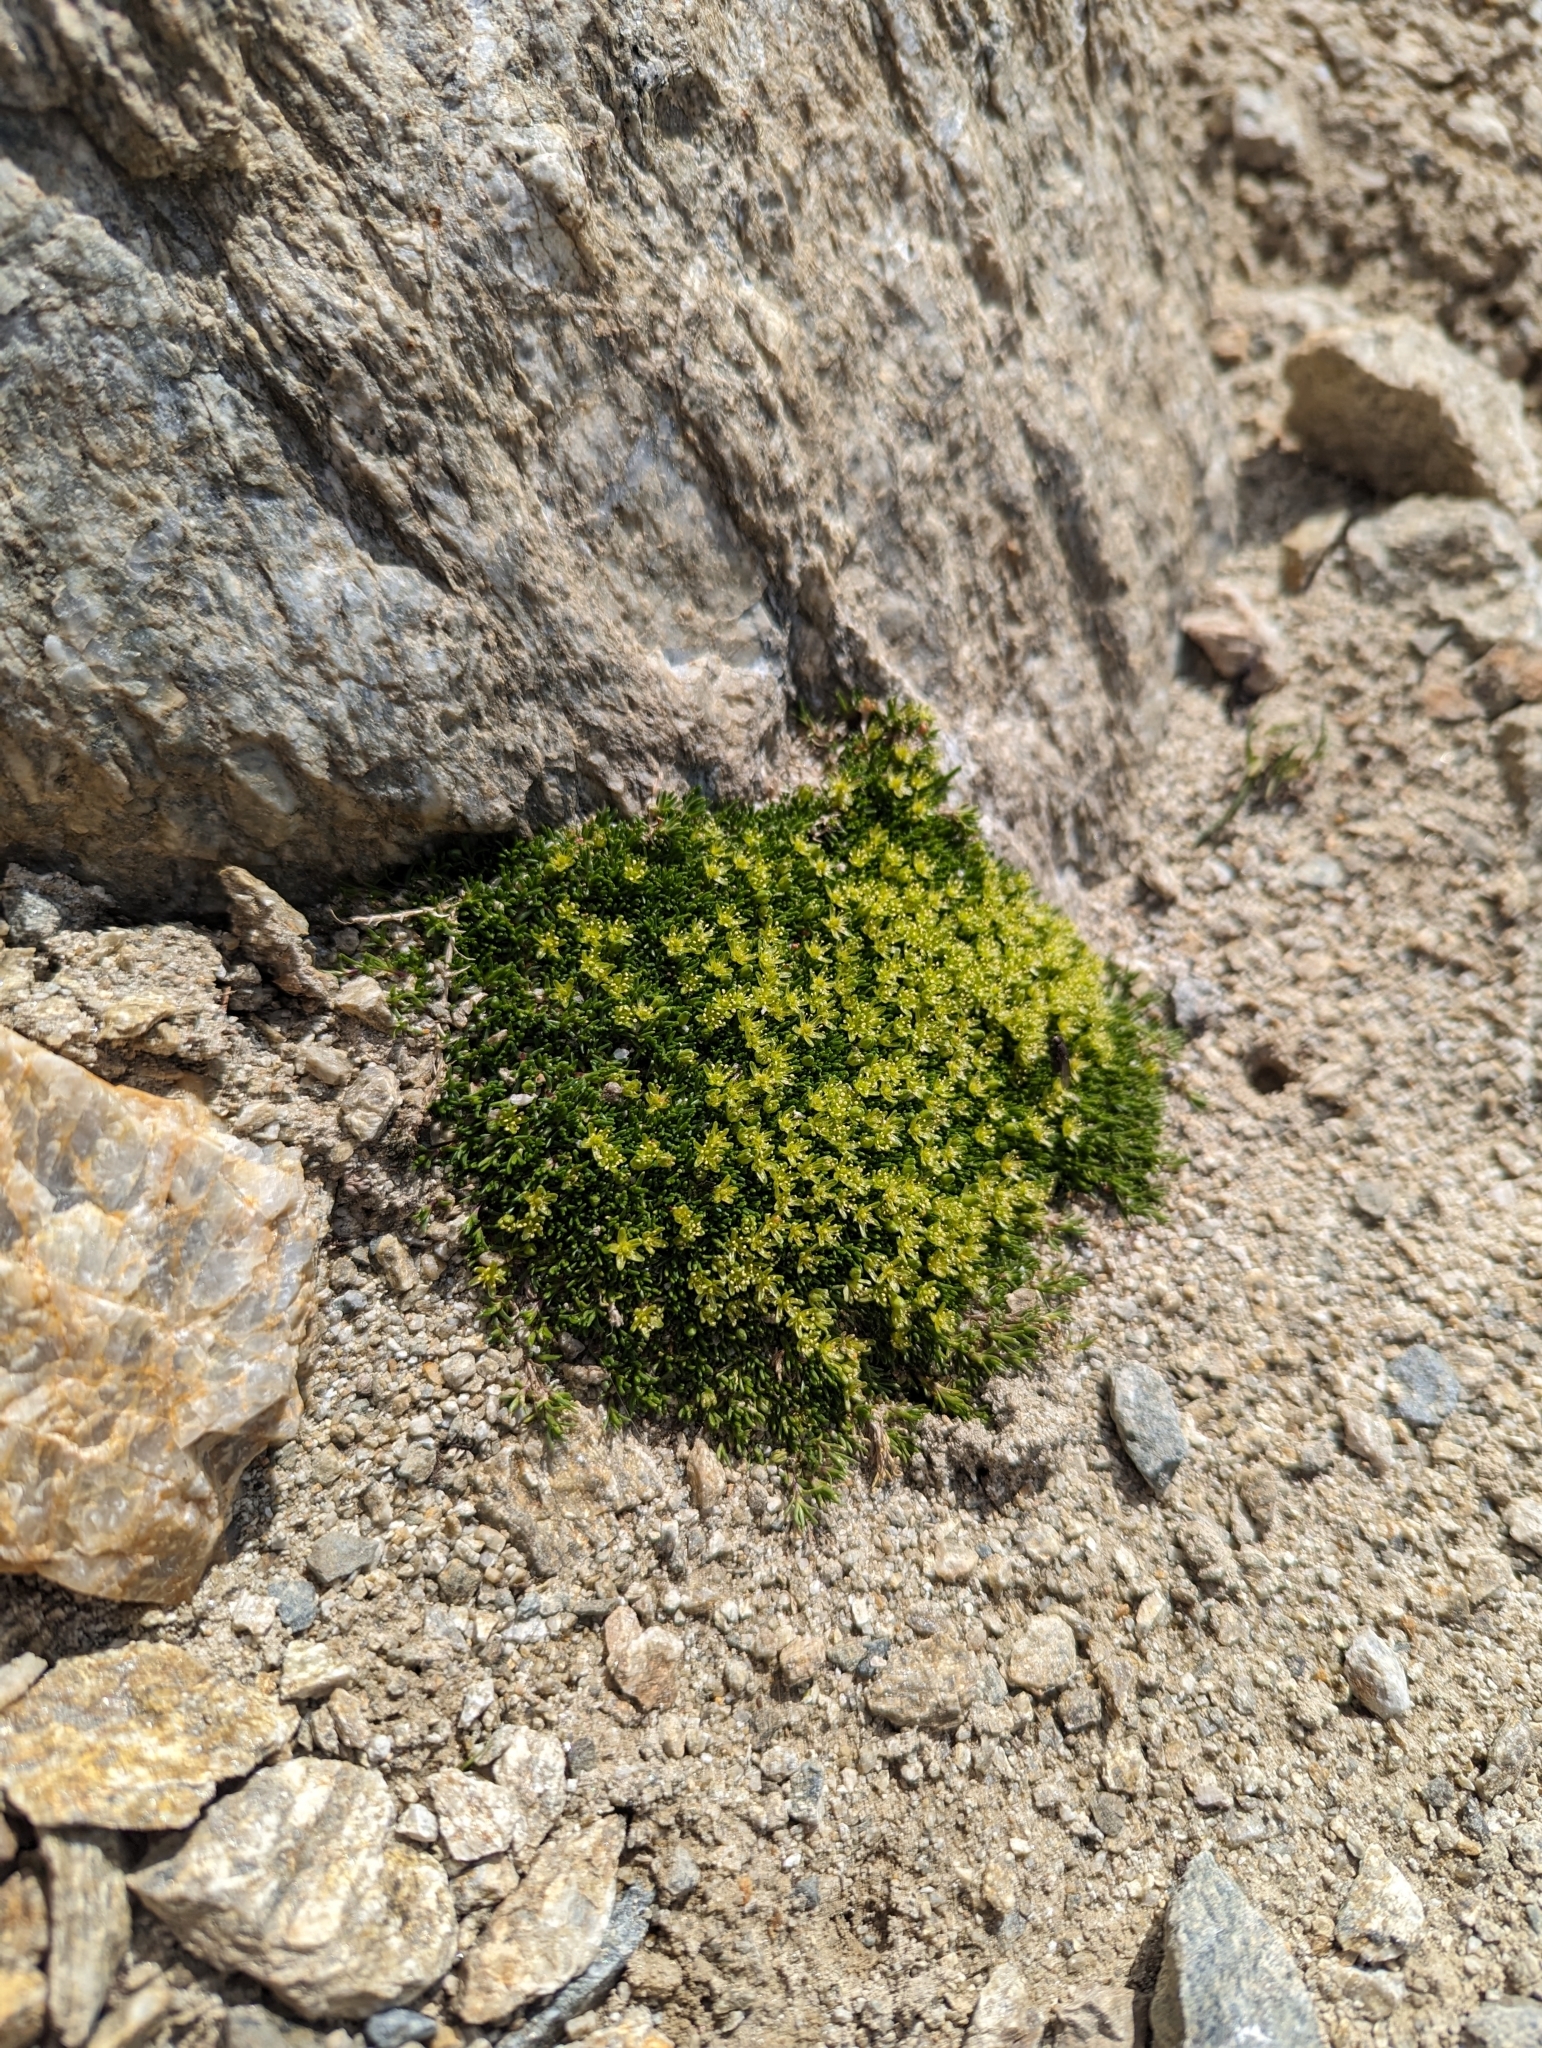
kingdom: Plantae
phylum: Tracheophyta
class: Magnoliopsida
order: Caryophyllales
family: Caryophyllaceae
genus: Cherleria
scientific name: Cherleria sedoides
